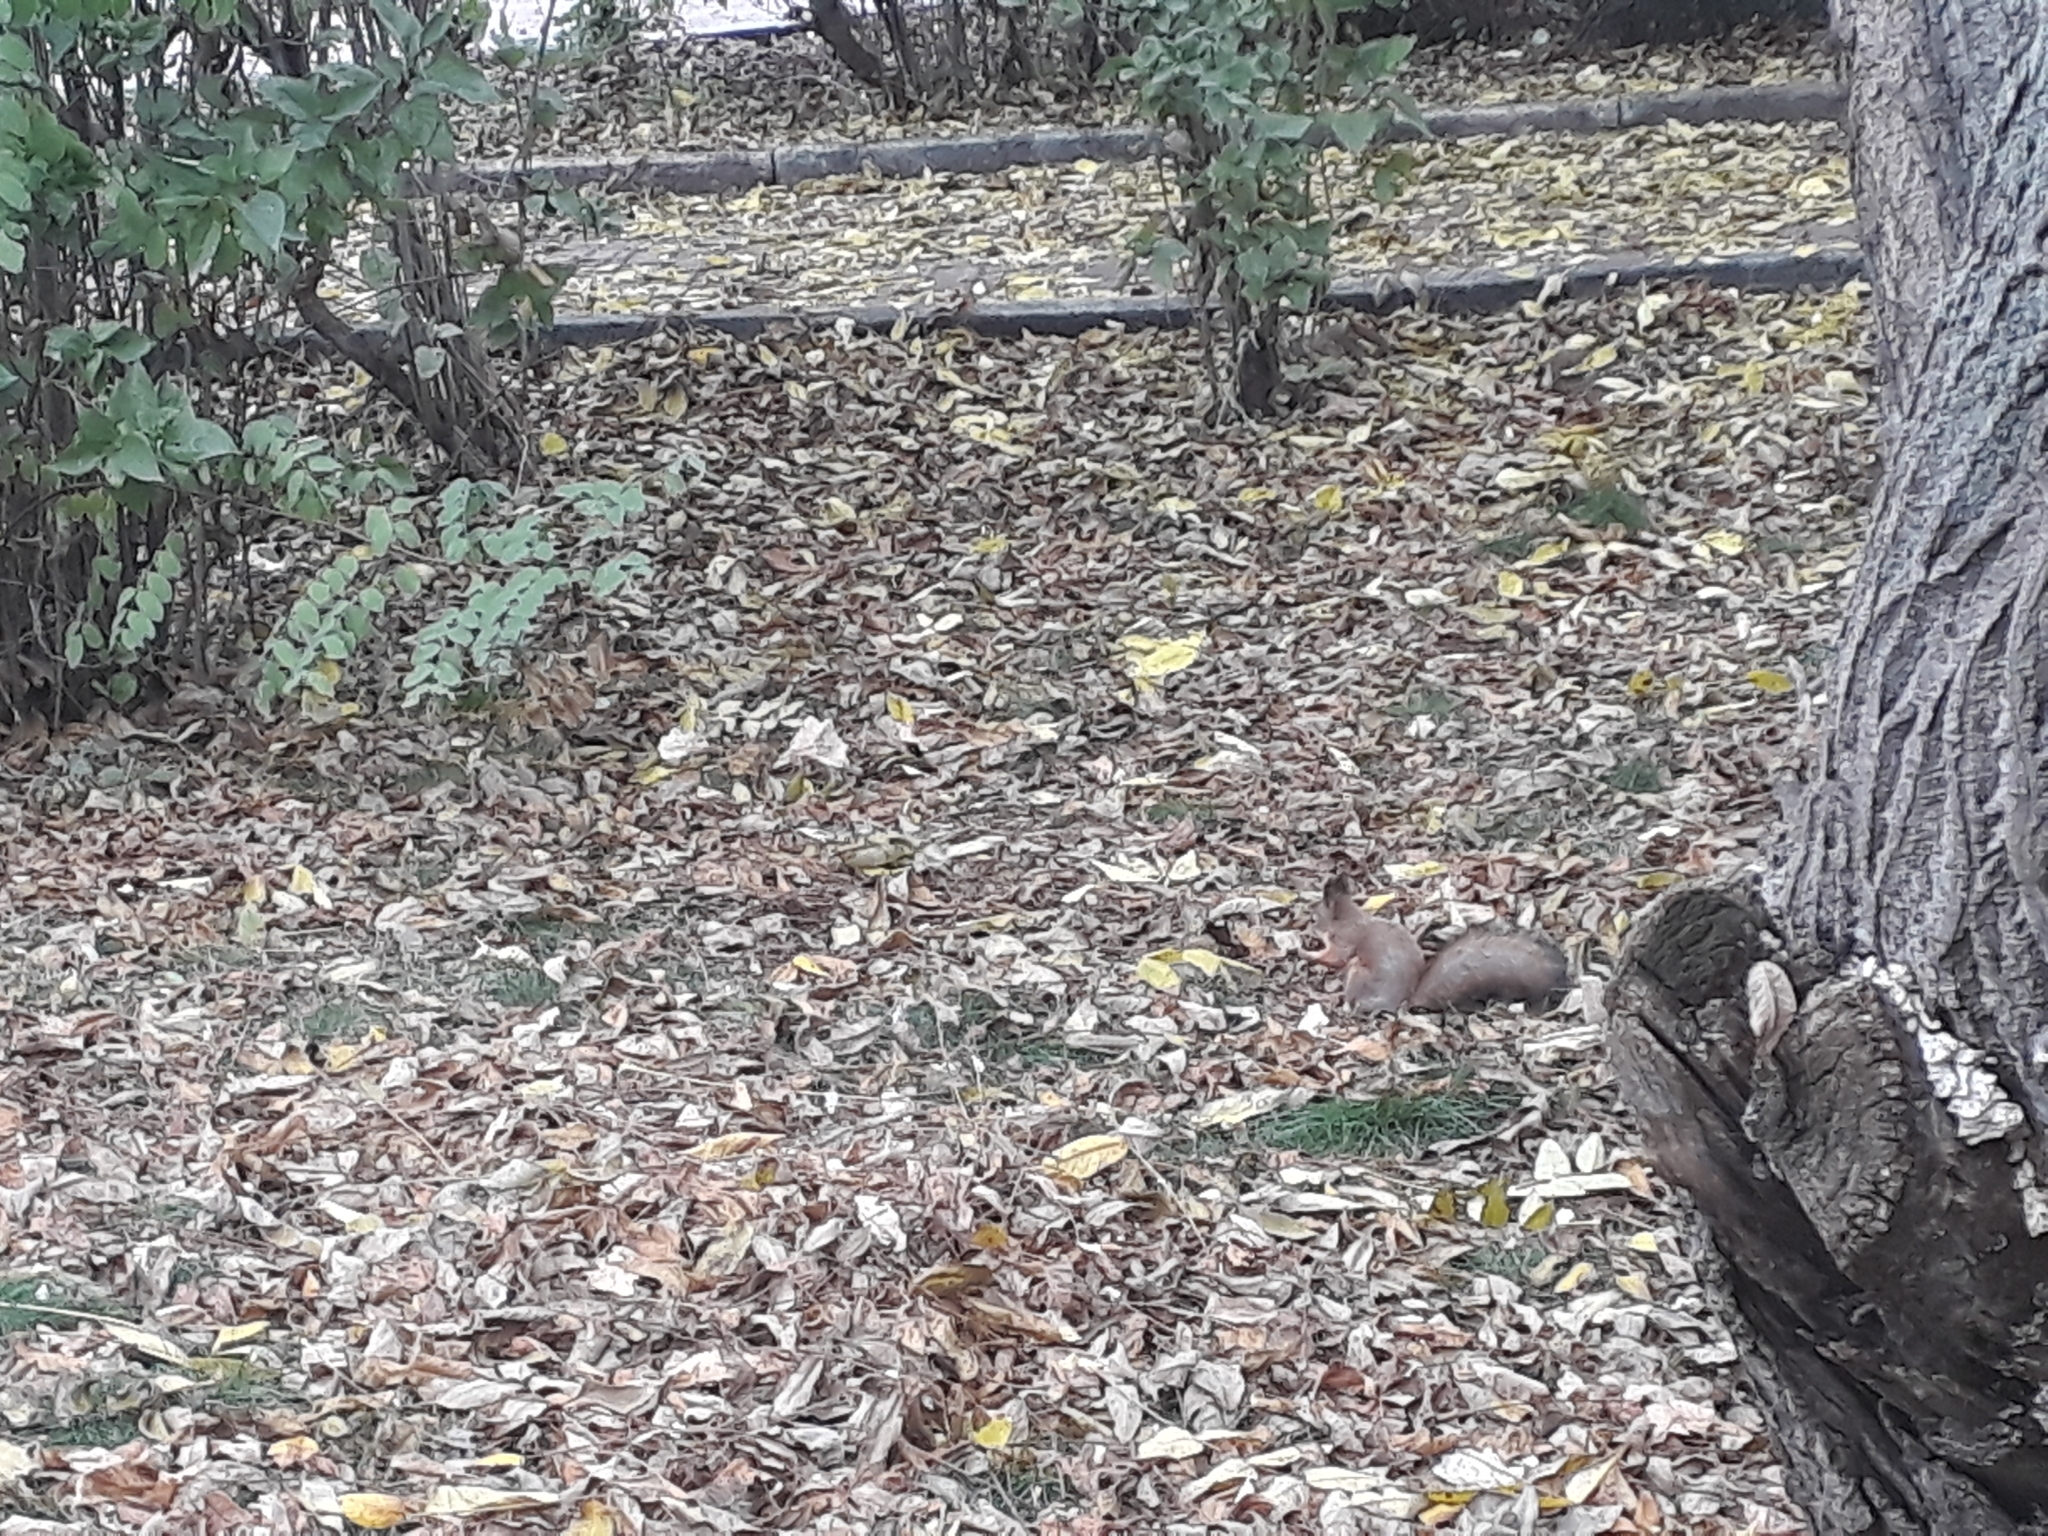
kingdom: Animalia
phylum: Chordata
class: Mammalia
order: Rodentia
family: Sciuridae
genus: Sciurus
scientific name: Sciurus vulgaris
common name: Eurasian red squirrel
